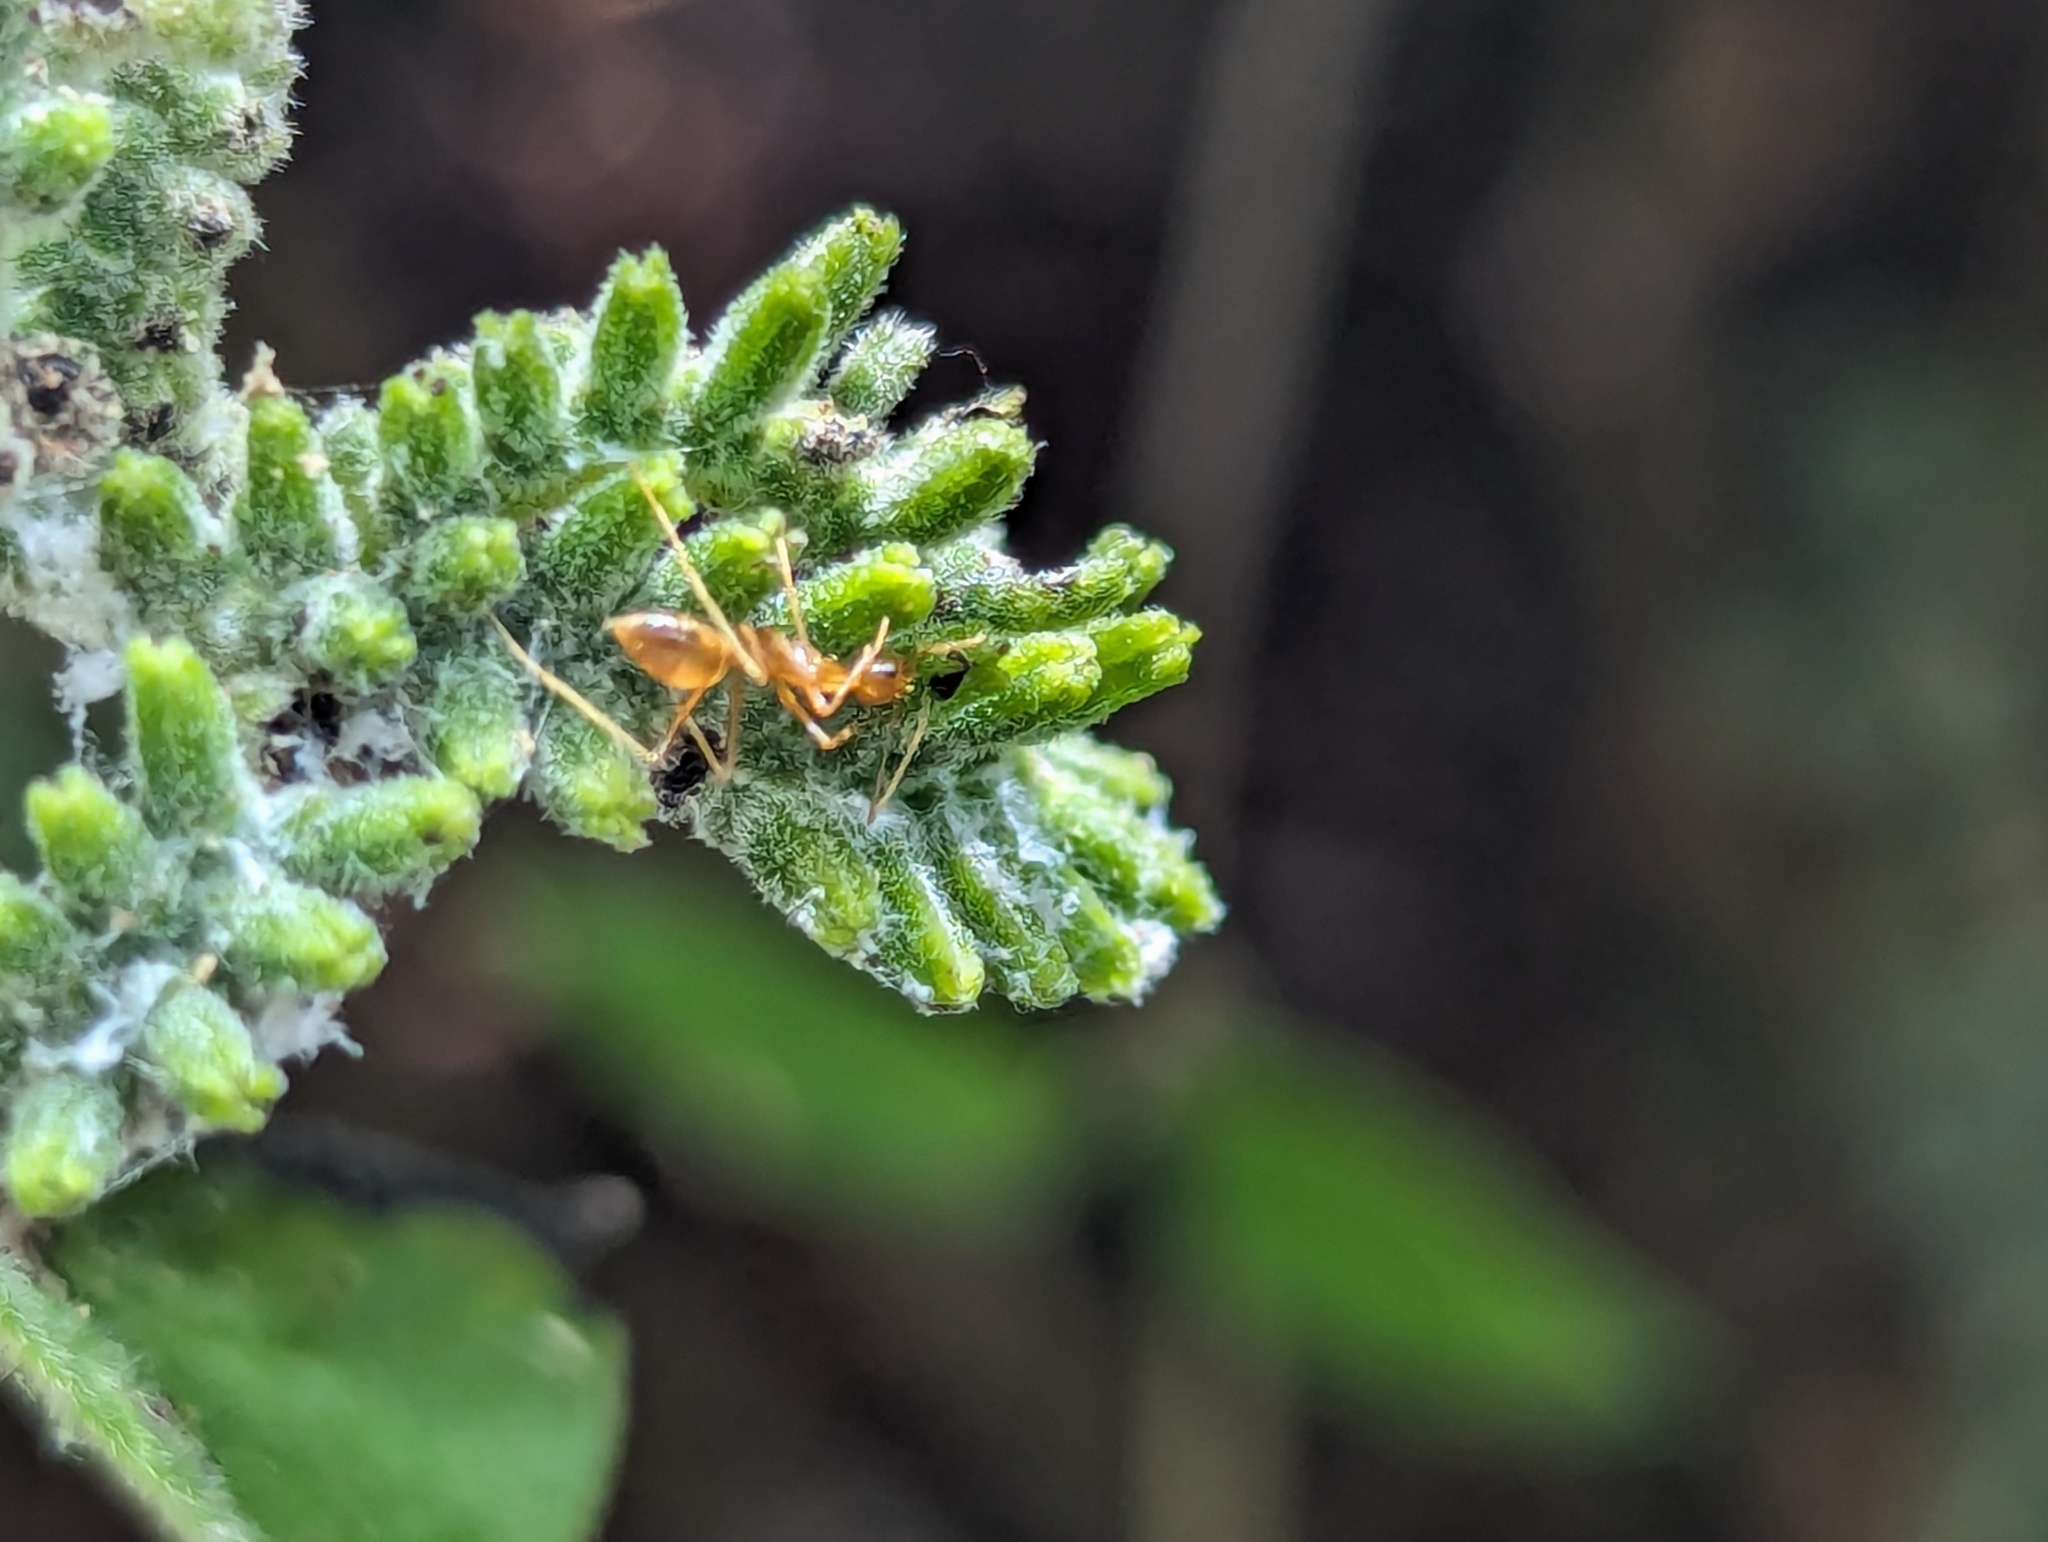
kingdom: Animalia
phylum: Arthropoda
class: Insecta
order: Hymenoptera
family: Formicidae
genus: Anoplolepis
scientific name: Anoplolepis gracilipes
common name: Ant
